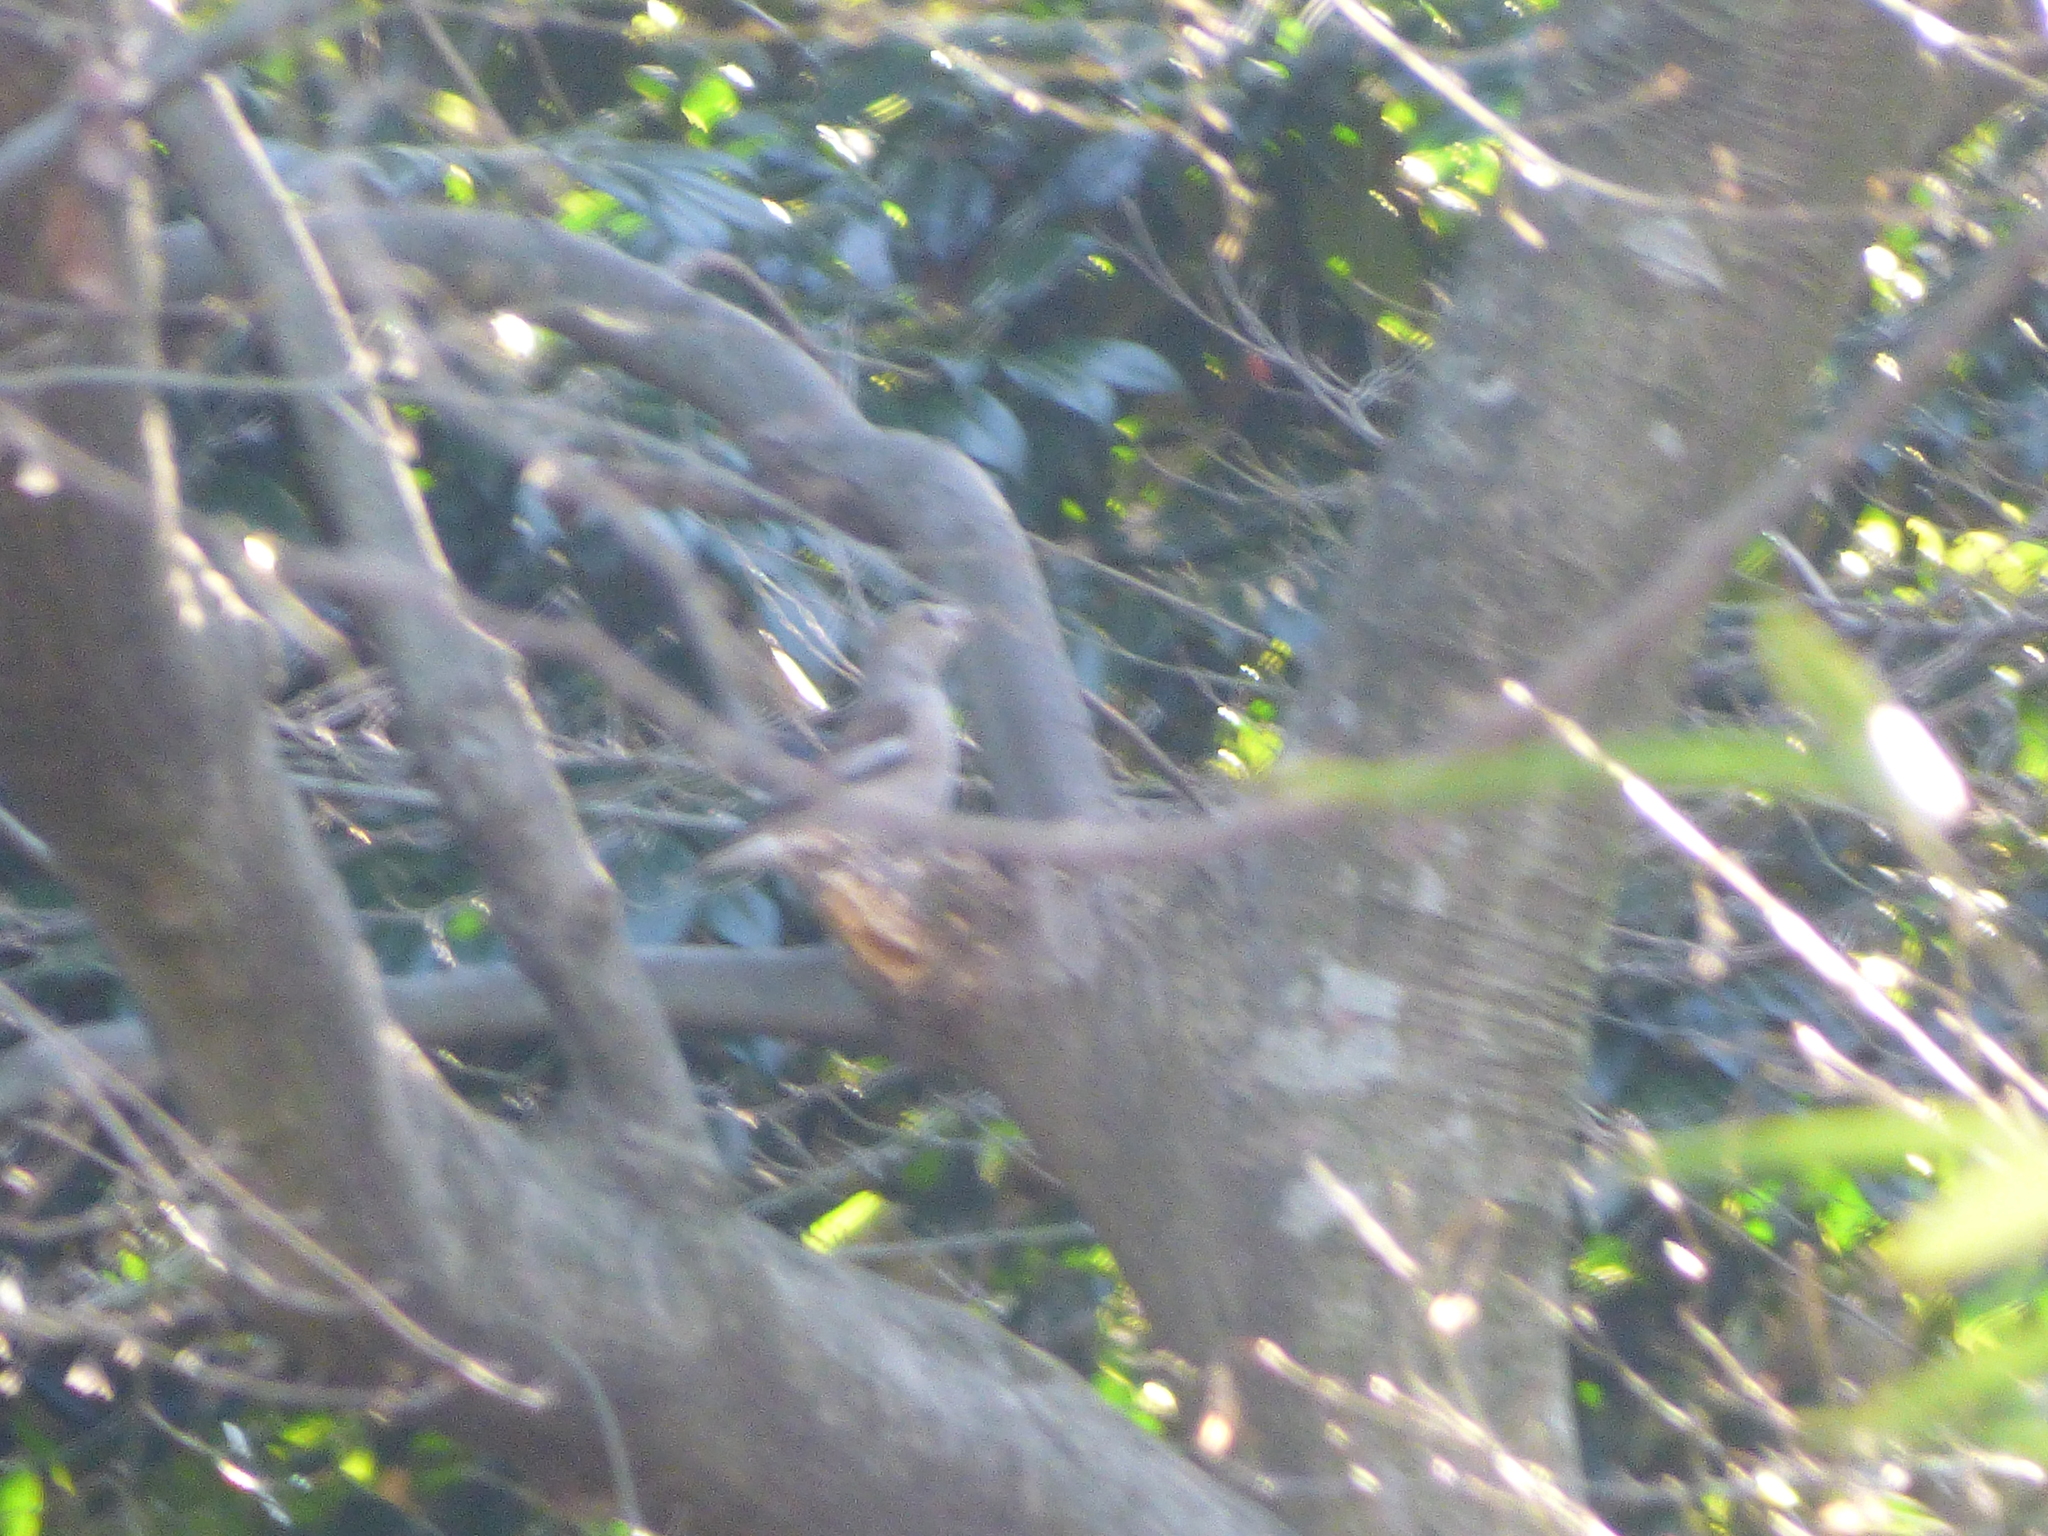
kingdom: Animalia
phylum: Chordata
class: Aves
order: Passeriformes
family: Fringillidae
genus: Coccothraustes
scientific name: Coccothraustes coccothraustes
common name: Hawfinch
